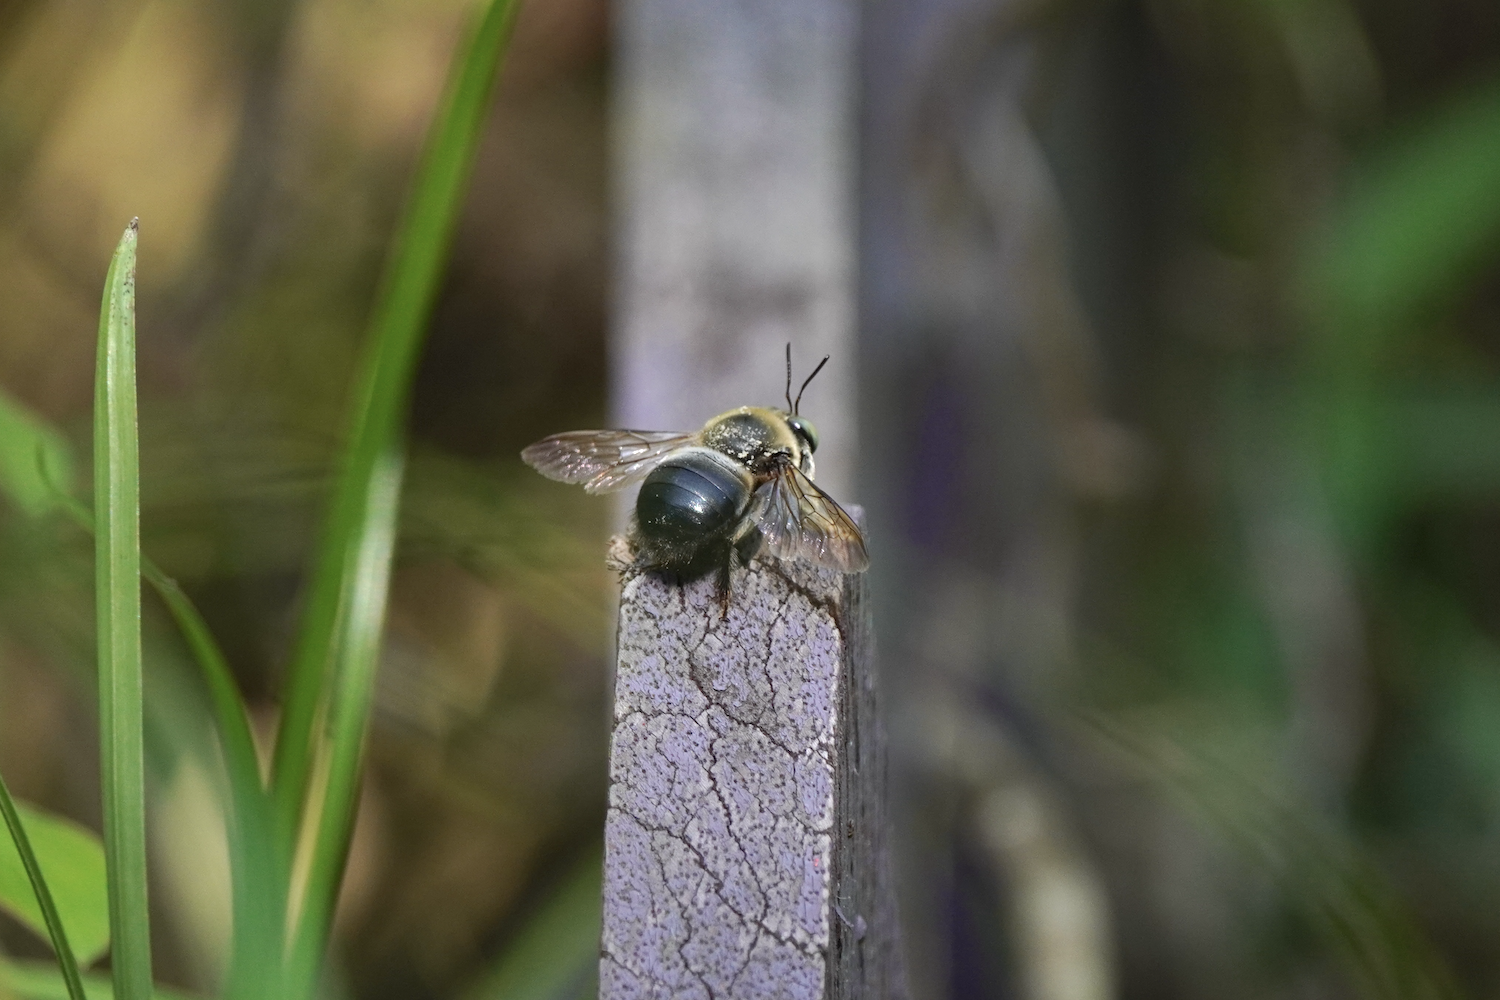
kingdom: Animalia
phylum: Arthropoda
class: Insecta
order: Hymenoptera
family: Apidae
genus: Xylocopa
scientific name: Xylocopa dejeanii
